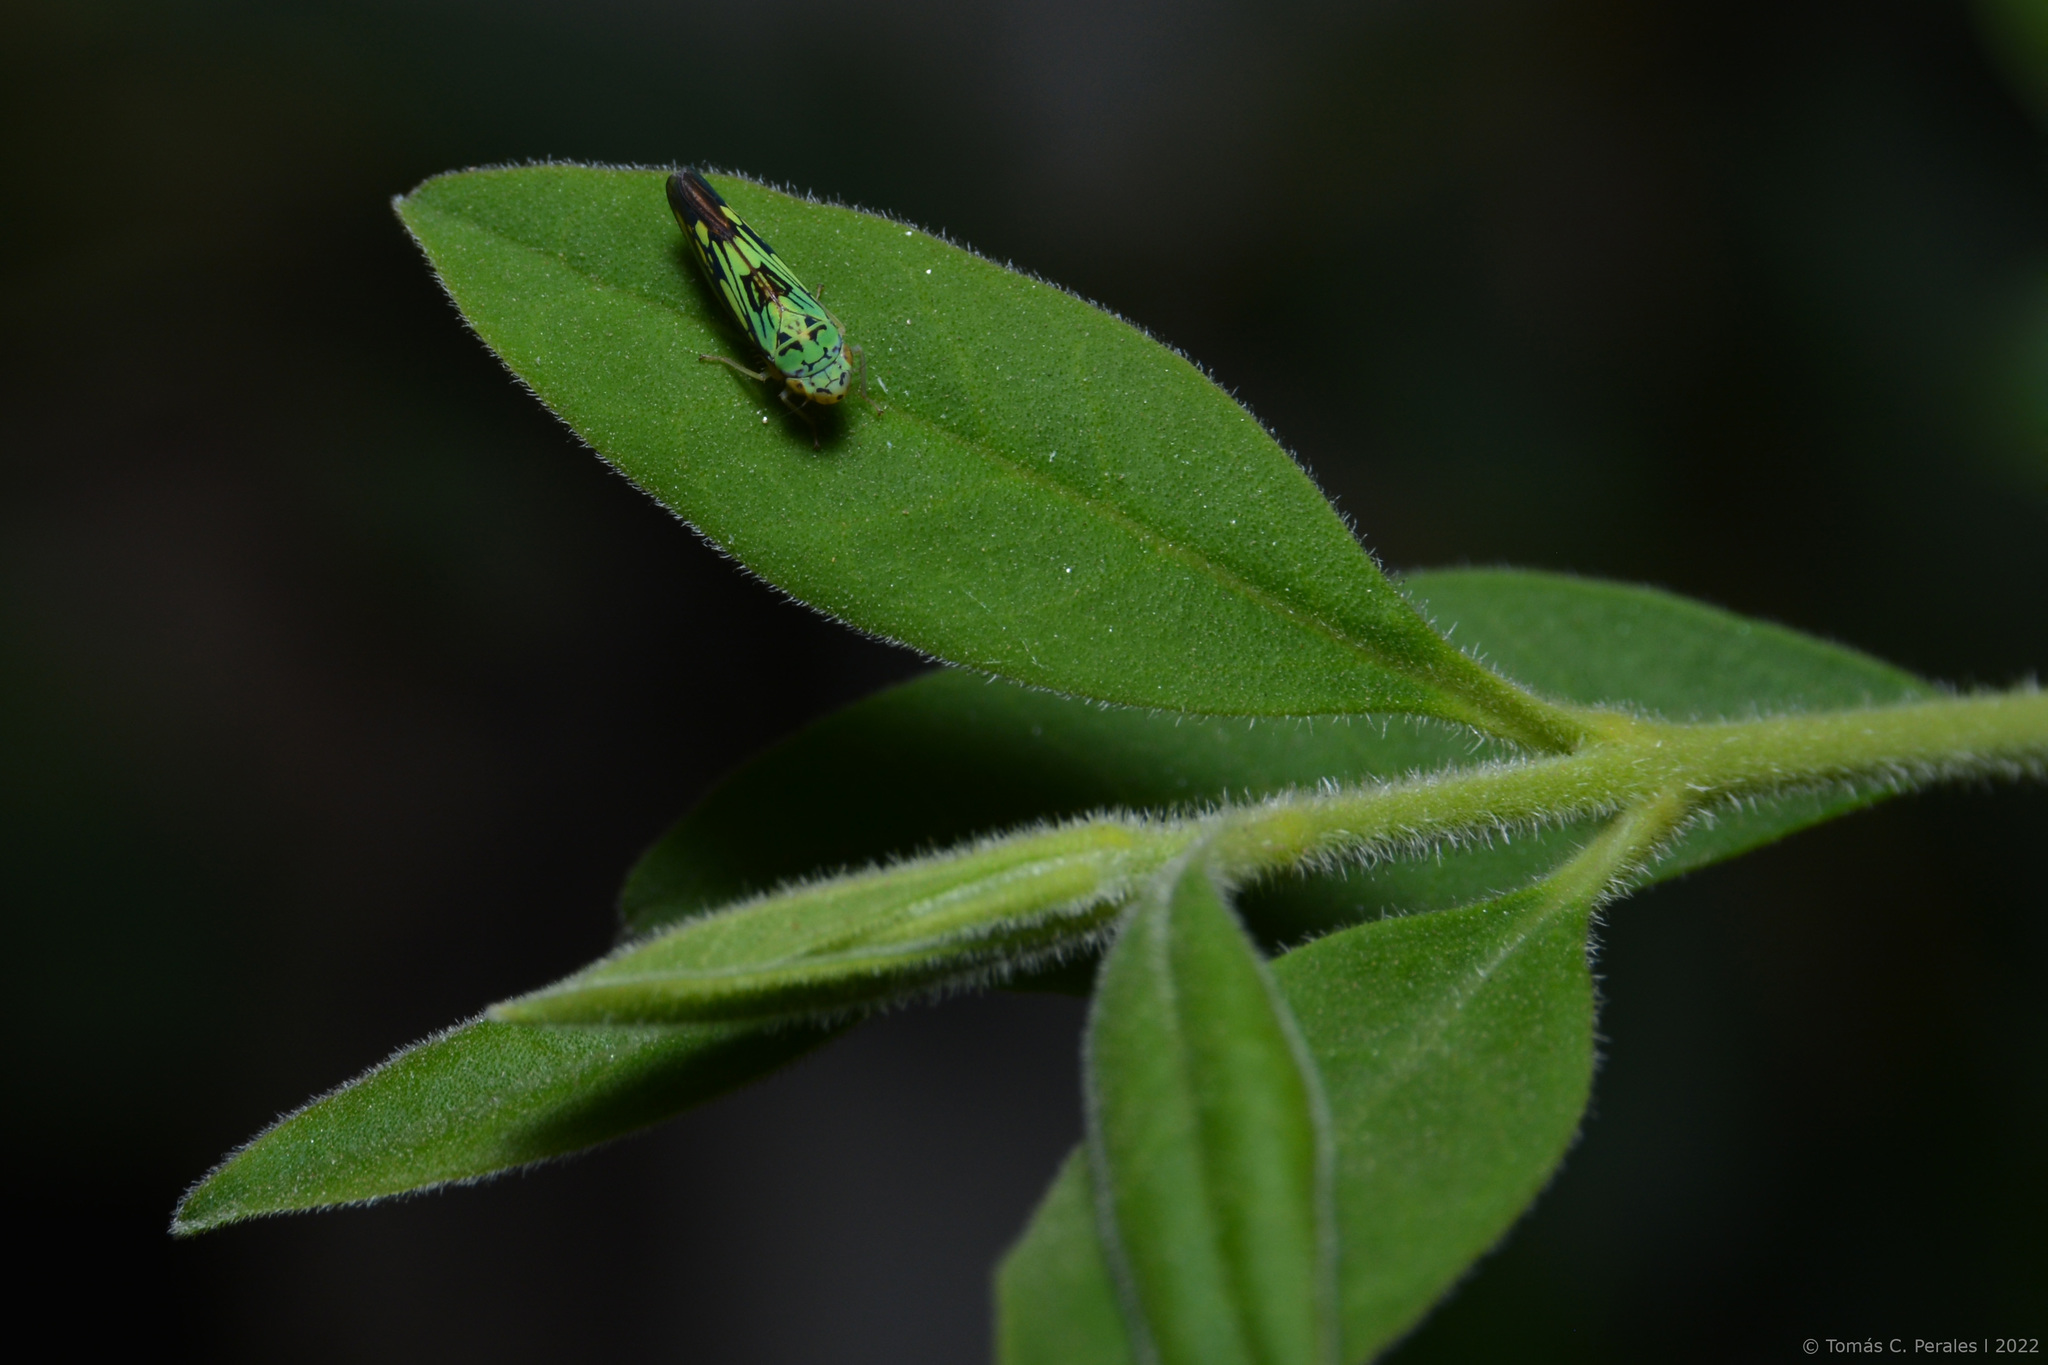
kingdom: Animalia
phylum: Arthropoda
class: Insecta
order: Hemiptera
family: Cicadellidae
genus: Scopogonalia
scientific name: Scopogonalia penicula
